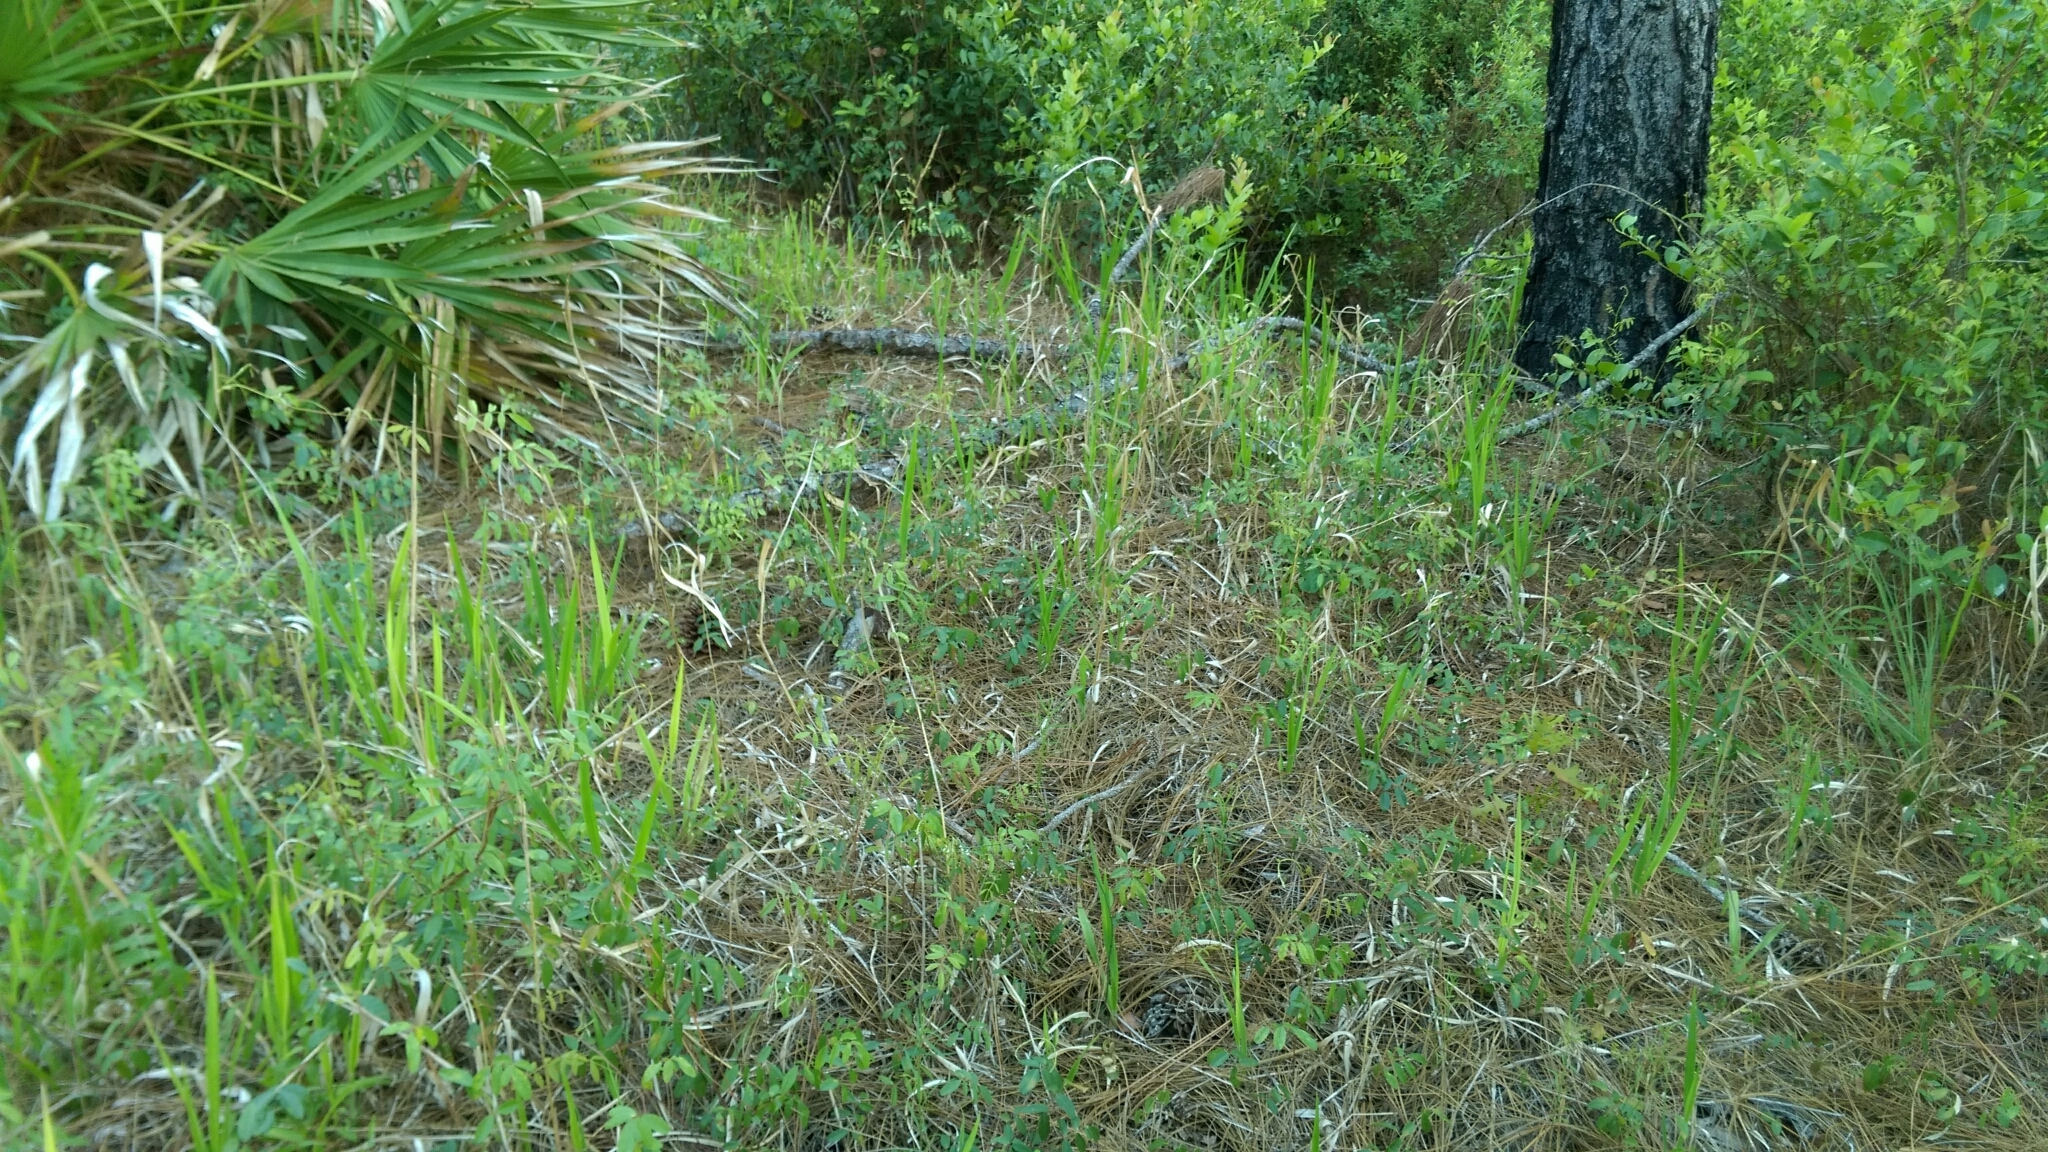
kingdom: Plantae
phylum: Tracheophyta
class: Liliopsida
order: Poales
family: Poaceae
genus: Imperata
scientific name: Imperata cylindrica
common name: Cogongrass
